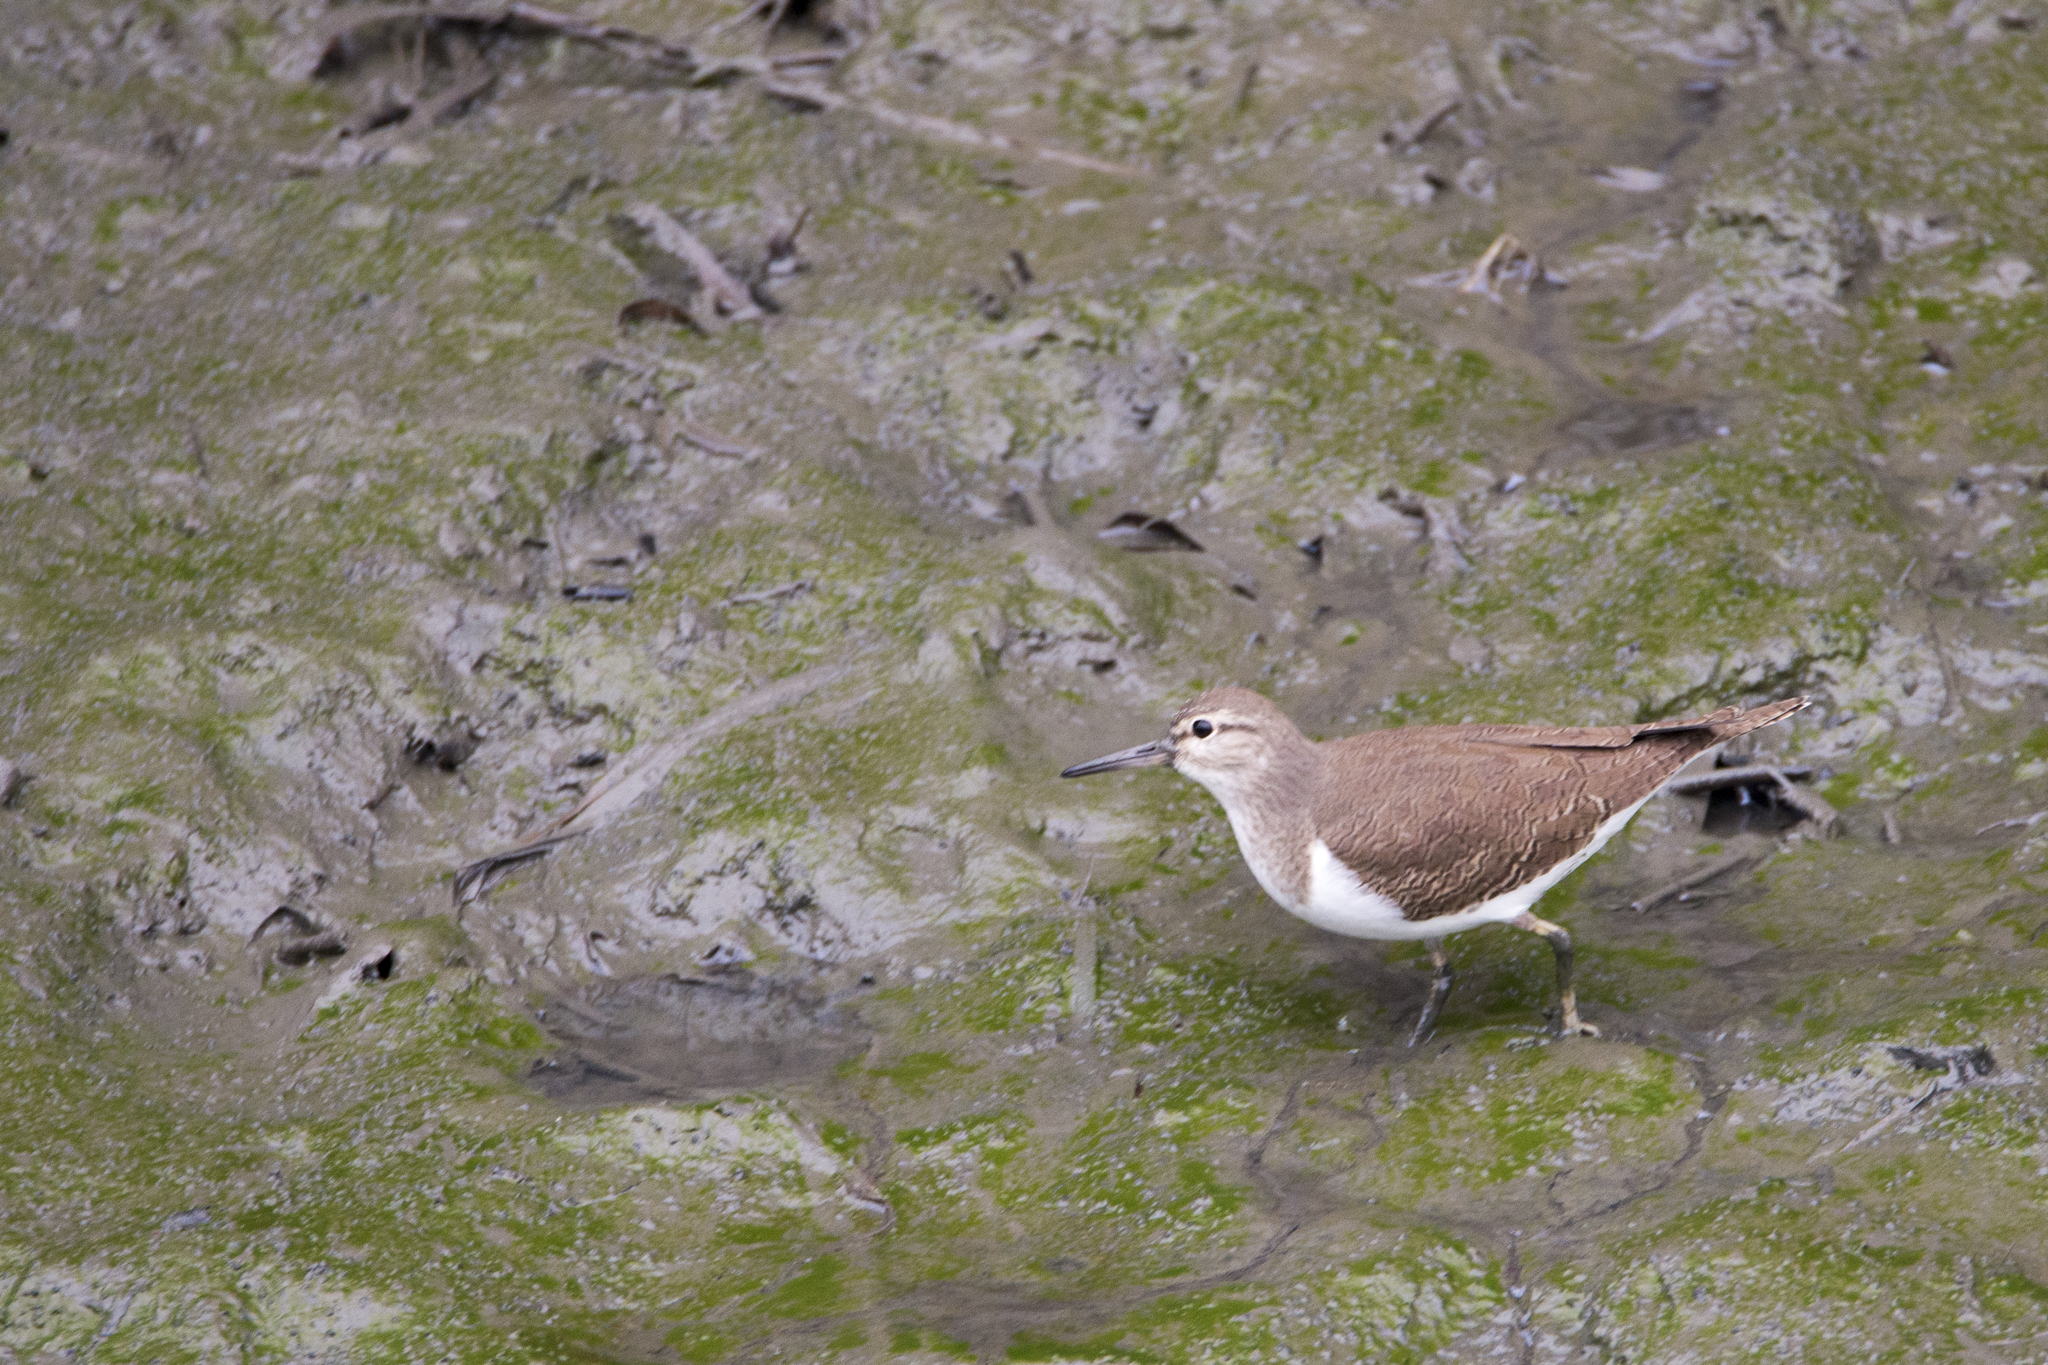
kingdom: Animalia
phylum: Chordata
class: Aves
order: Charadriiformes
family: Scolopacidae
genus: Actitis
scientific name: Actitis hypoleucos
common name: Common sandpiper
